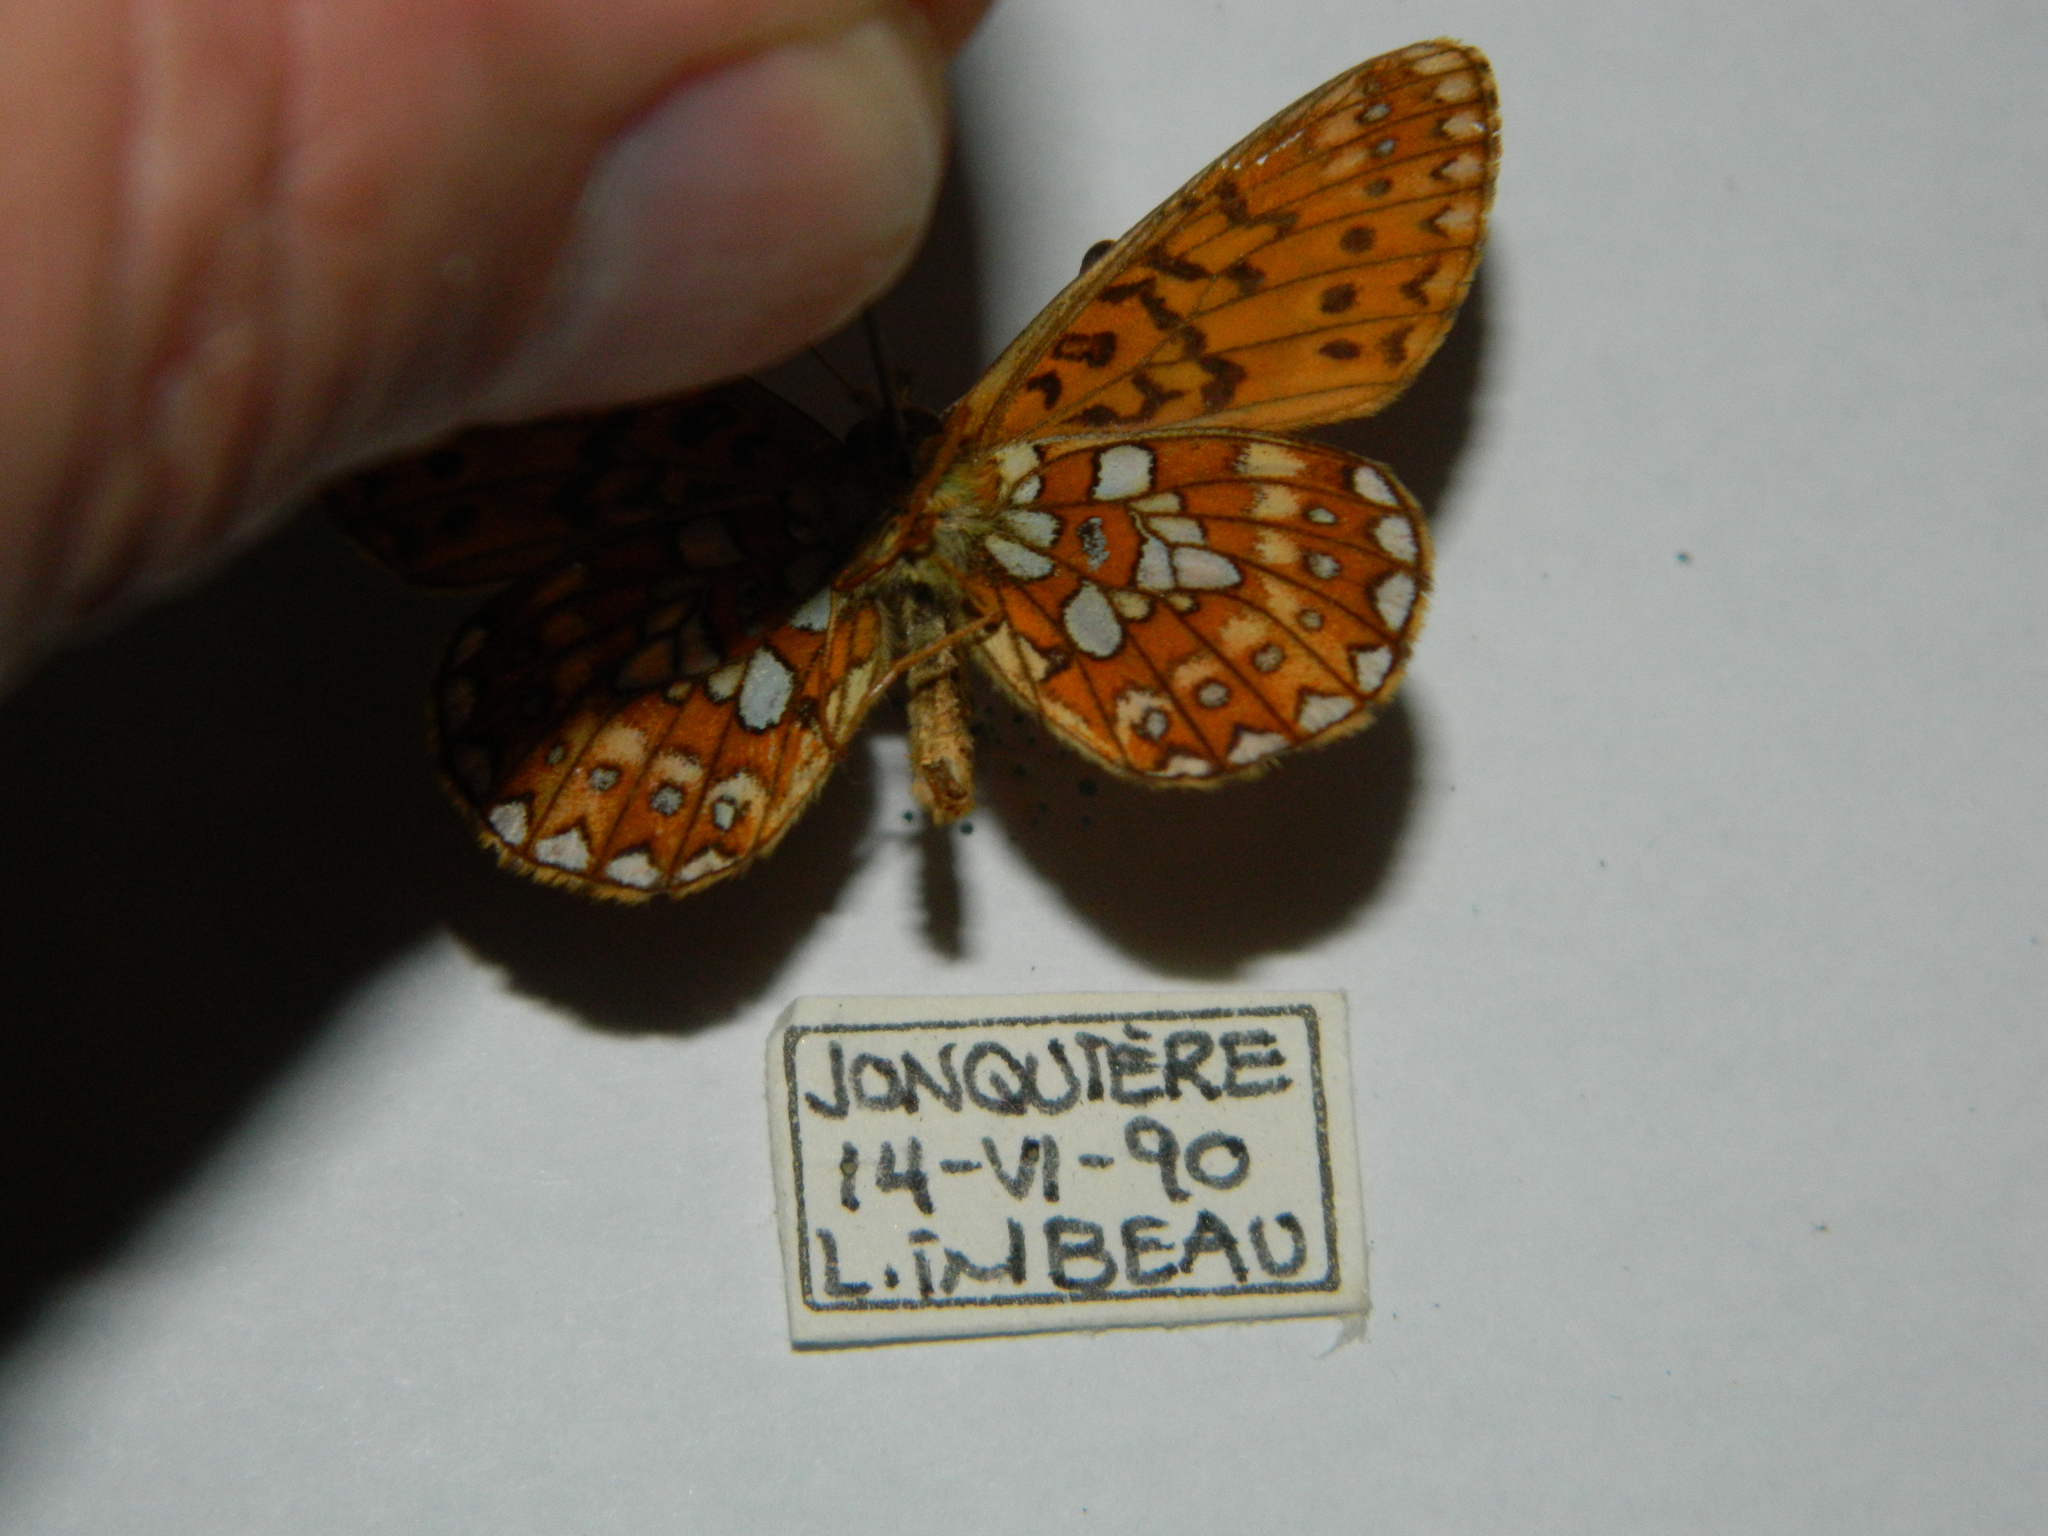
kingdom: Animalia
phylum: Arthropoda
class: Insecta
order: Lepidoptera
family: Nymphalidae
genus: Boloria
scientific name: Boloria eunomia
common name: Bog fritillary
